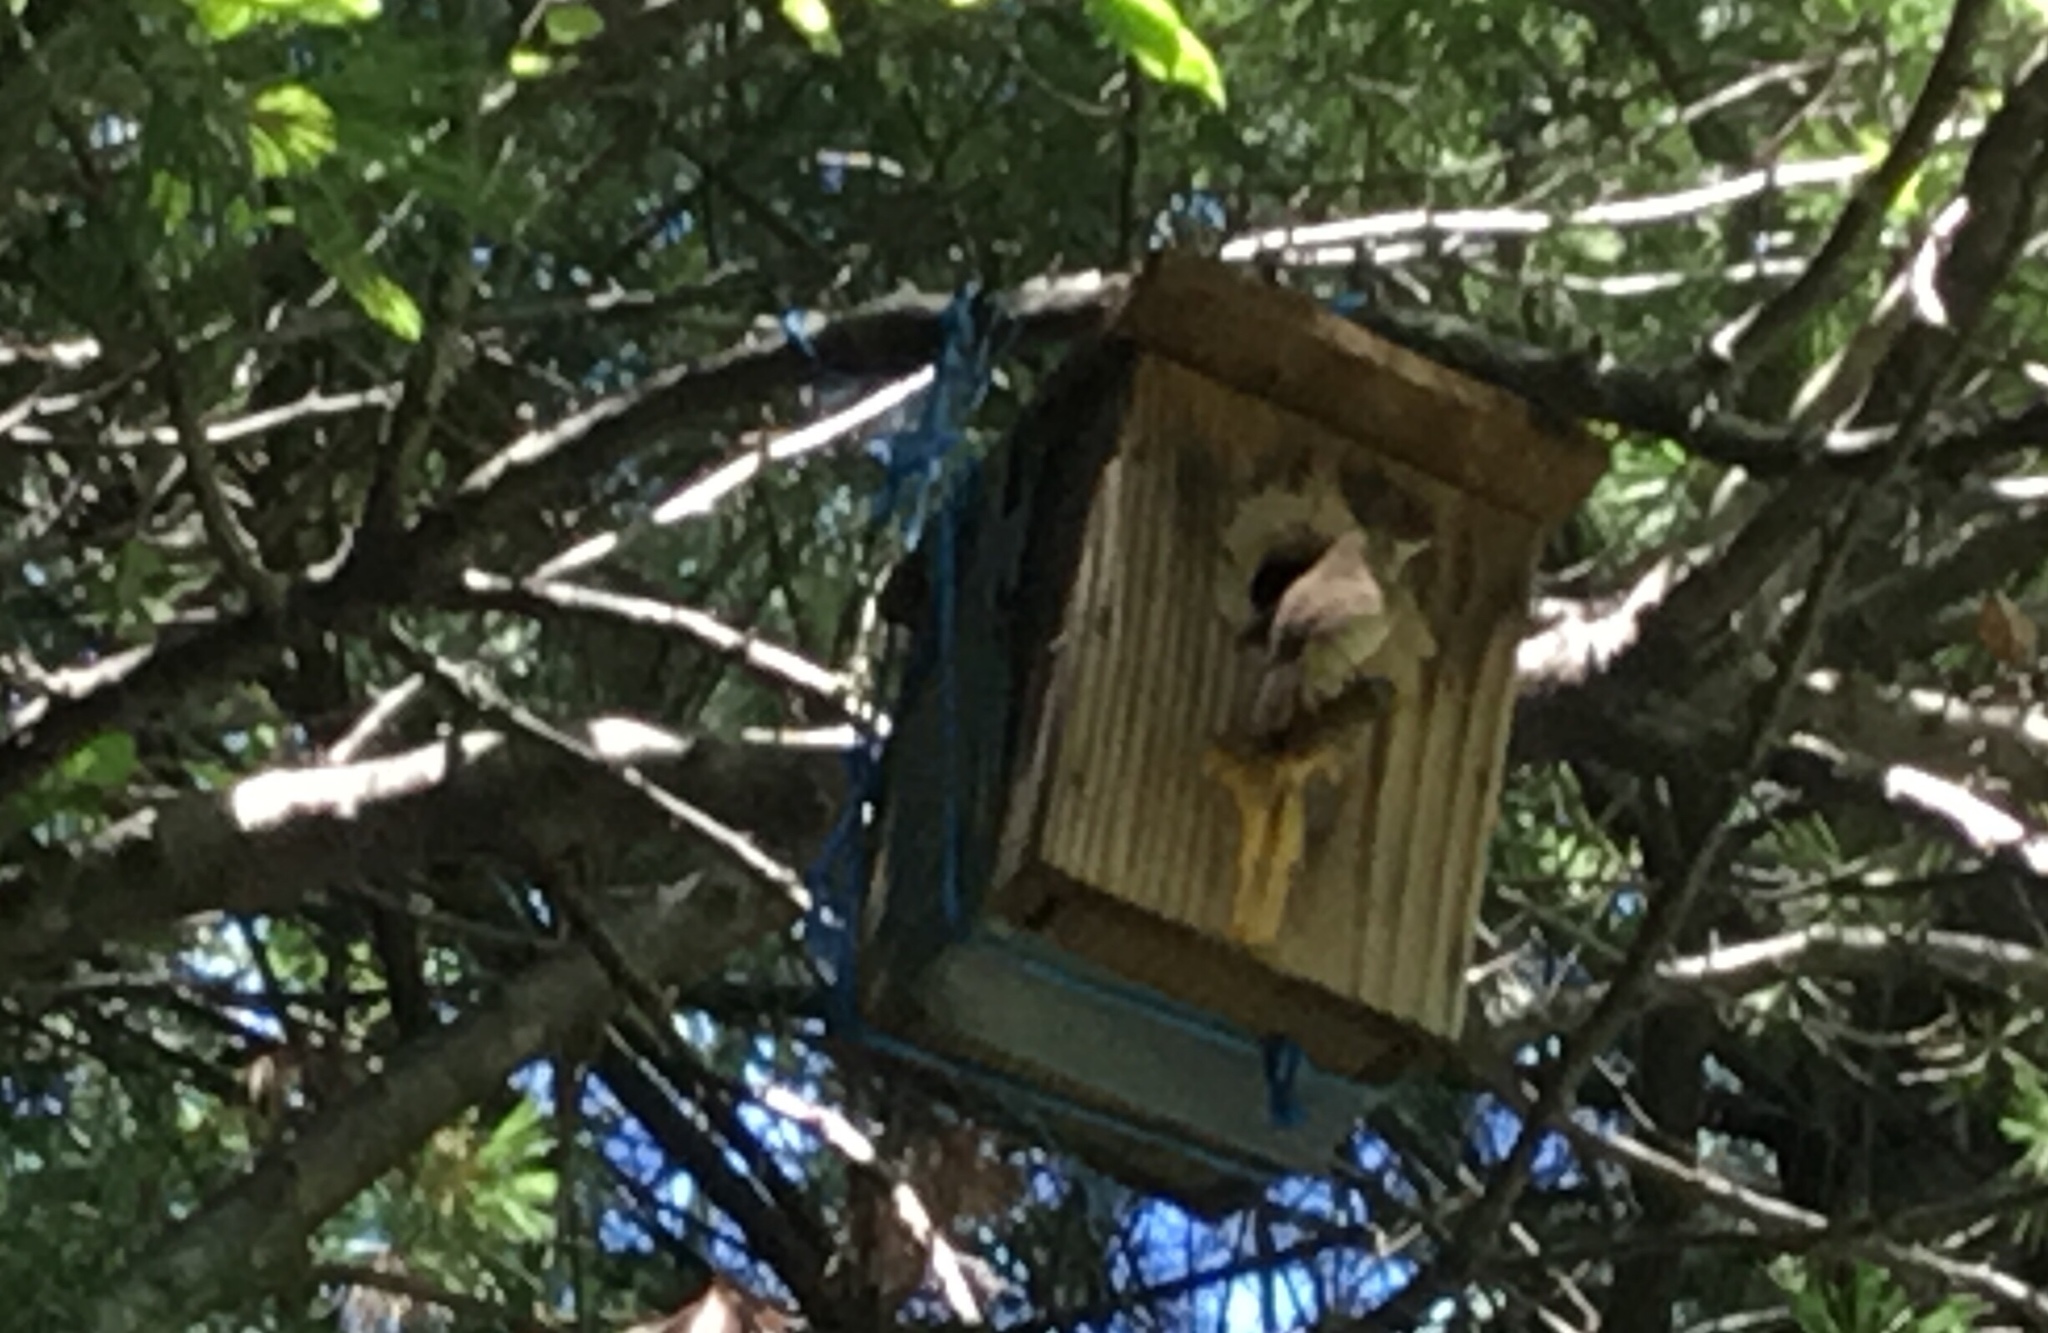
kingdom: Animalia
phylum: Chordata
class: Aves
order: Passeriformes
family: Troglodytidae
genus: Troglodytes
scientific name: Troglodytes aedon
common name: House wren
